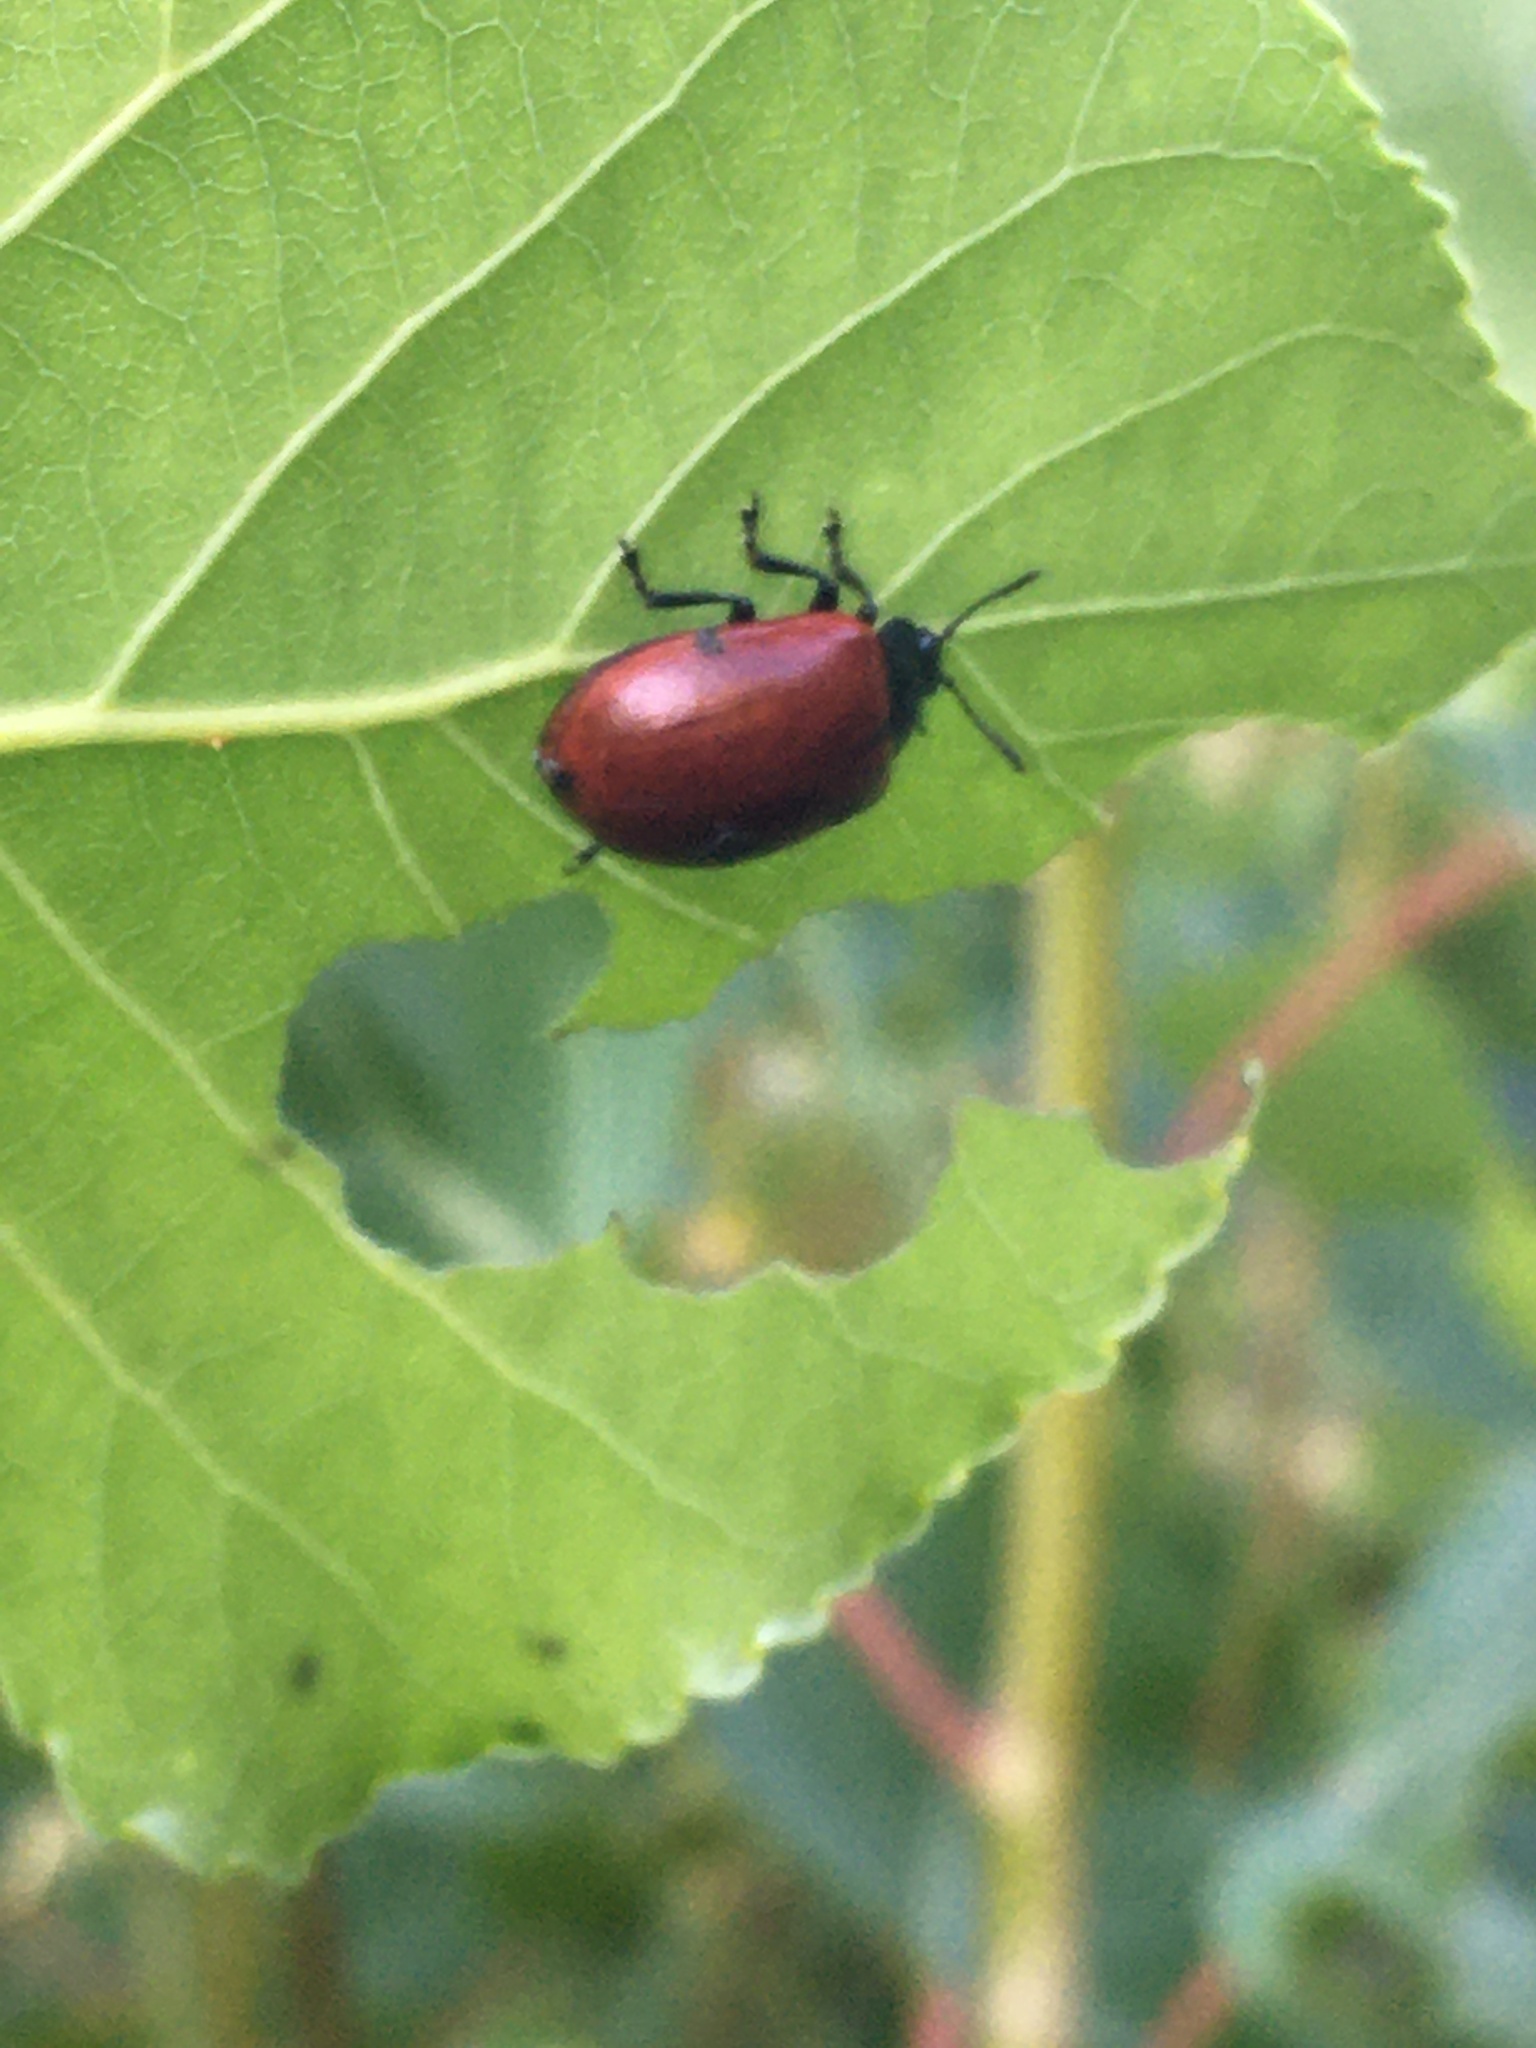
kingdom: Animalia
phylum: Arthropoda
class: Insecta
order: Coleoptera
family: Chrysomelidae
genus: Chrysomela
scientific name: Chrysomela populi
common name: Red poplar leaf beetle
